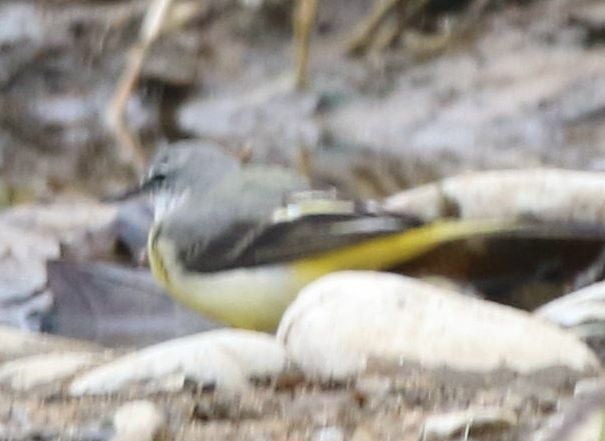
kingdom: Animalia
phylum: Chordata
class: Aves
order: Passeriformes
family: Motacillidae
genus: Motacilla
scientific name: Motacilla cinerea
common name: Grey wagtail
